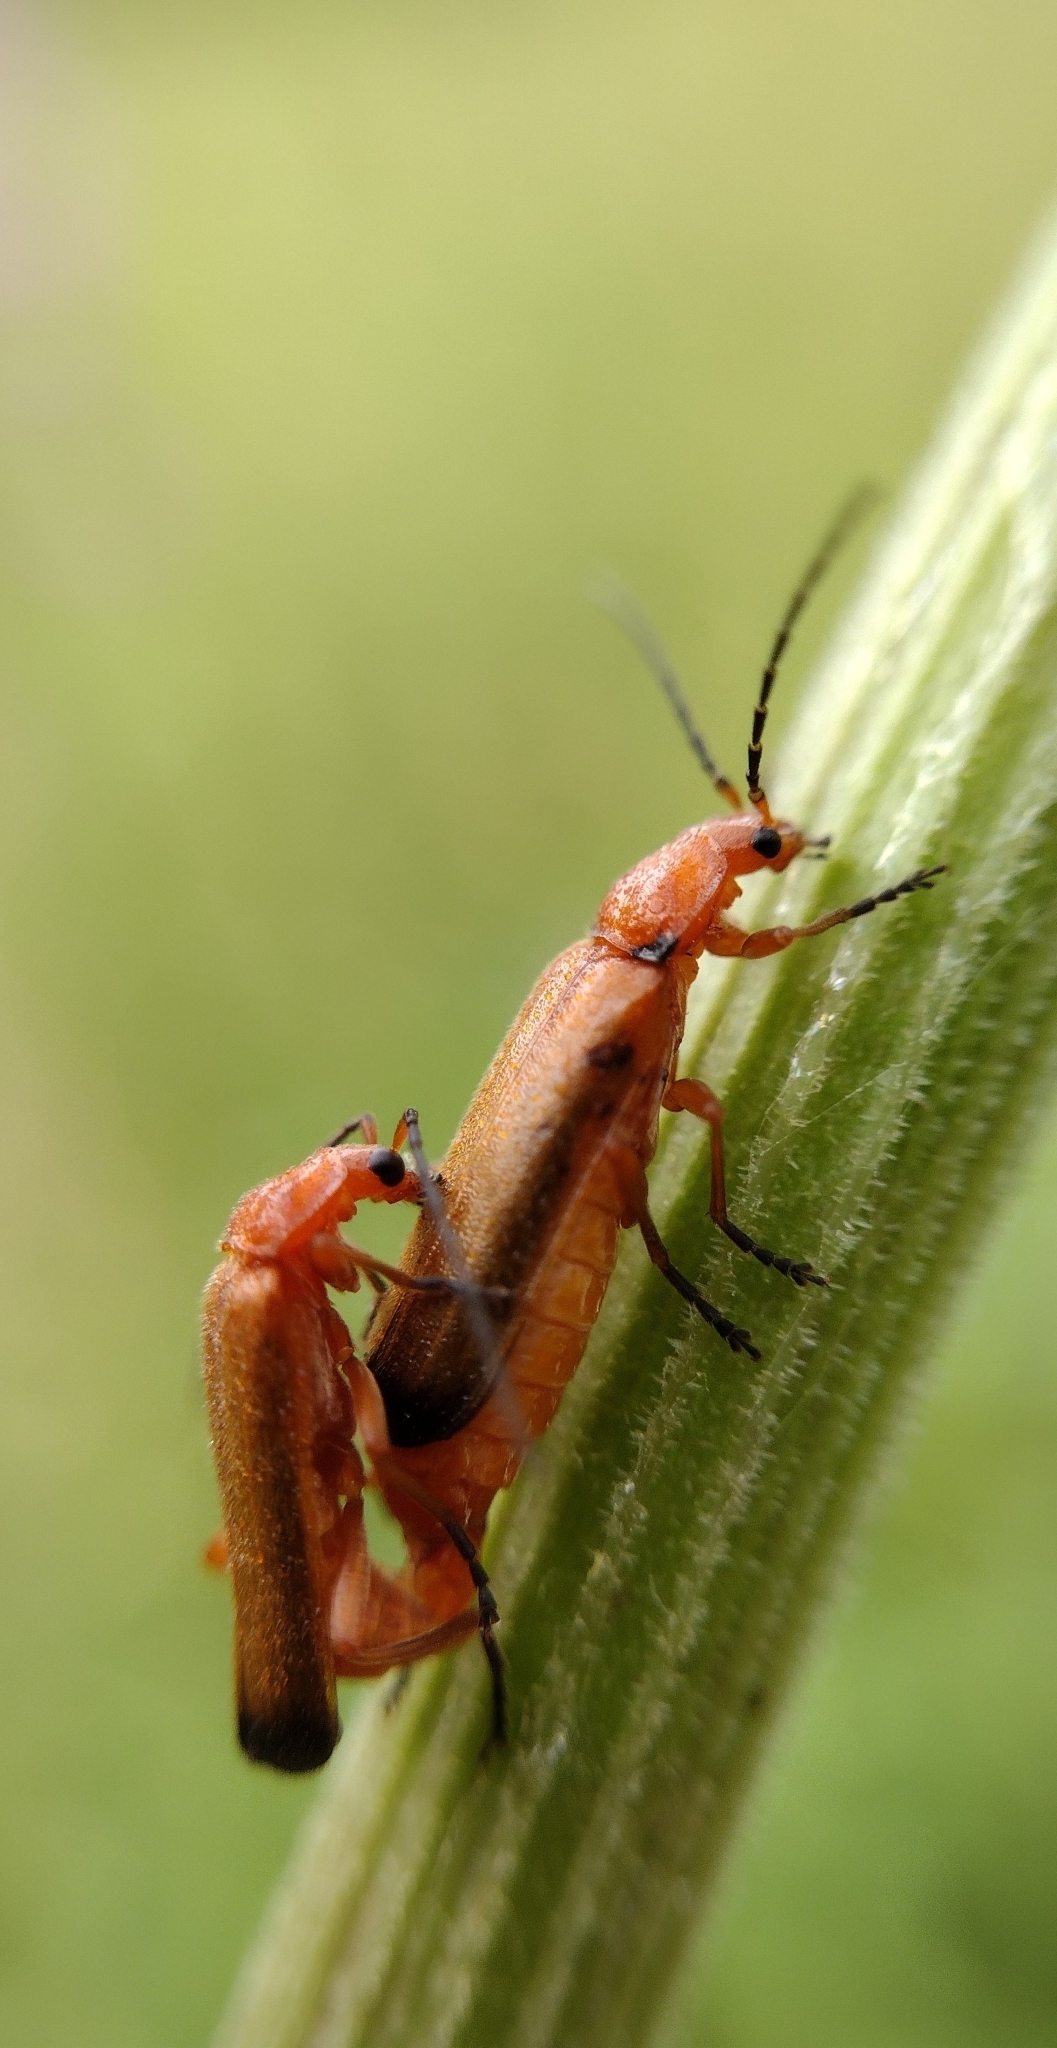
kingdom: Animalia
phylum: Arthropoda
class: Insecta
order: Coleoptera
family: Cantharidae
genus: Rhagonycha
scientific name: Rhagonycha fulva
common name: Common red soldier beetle
